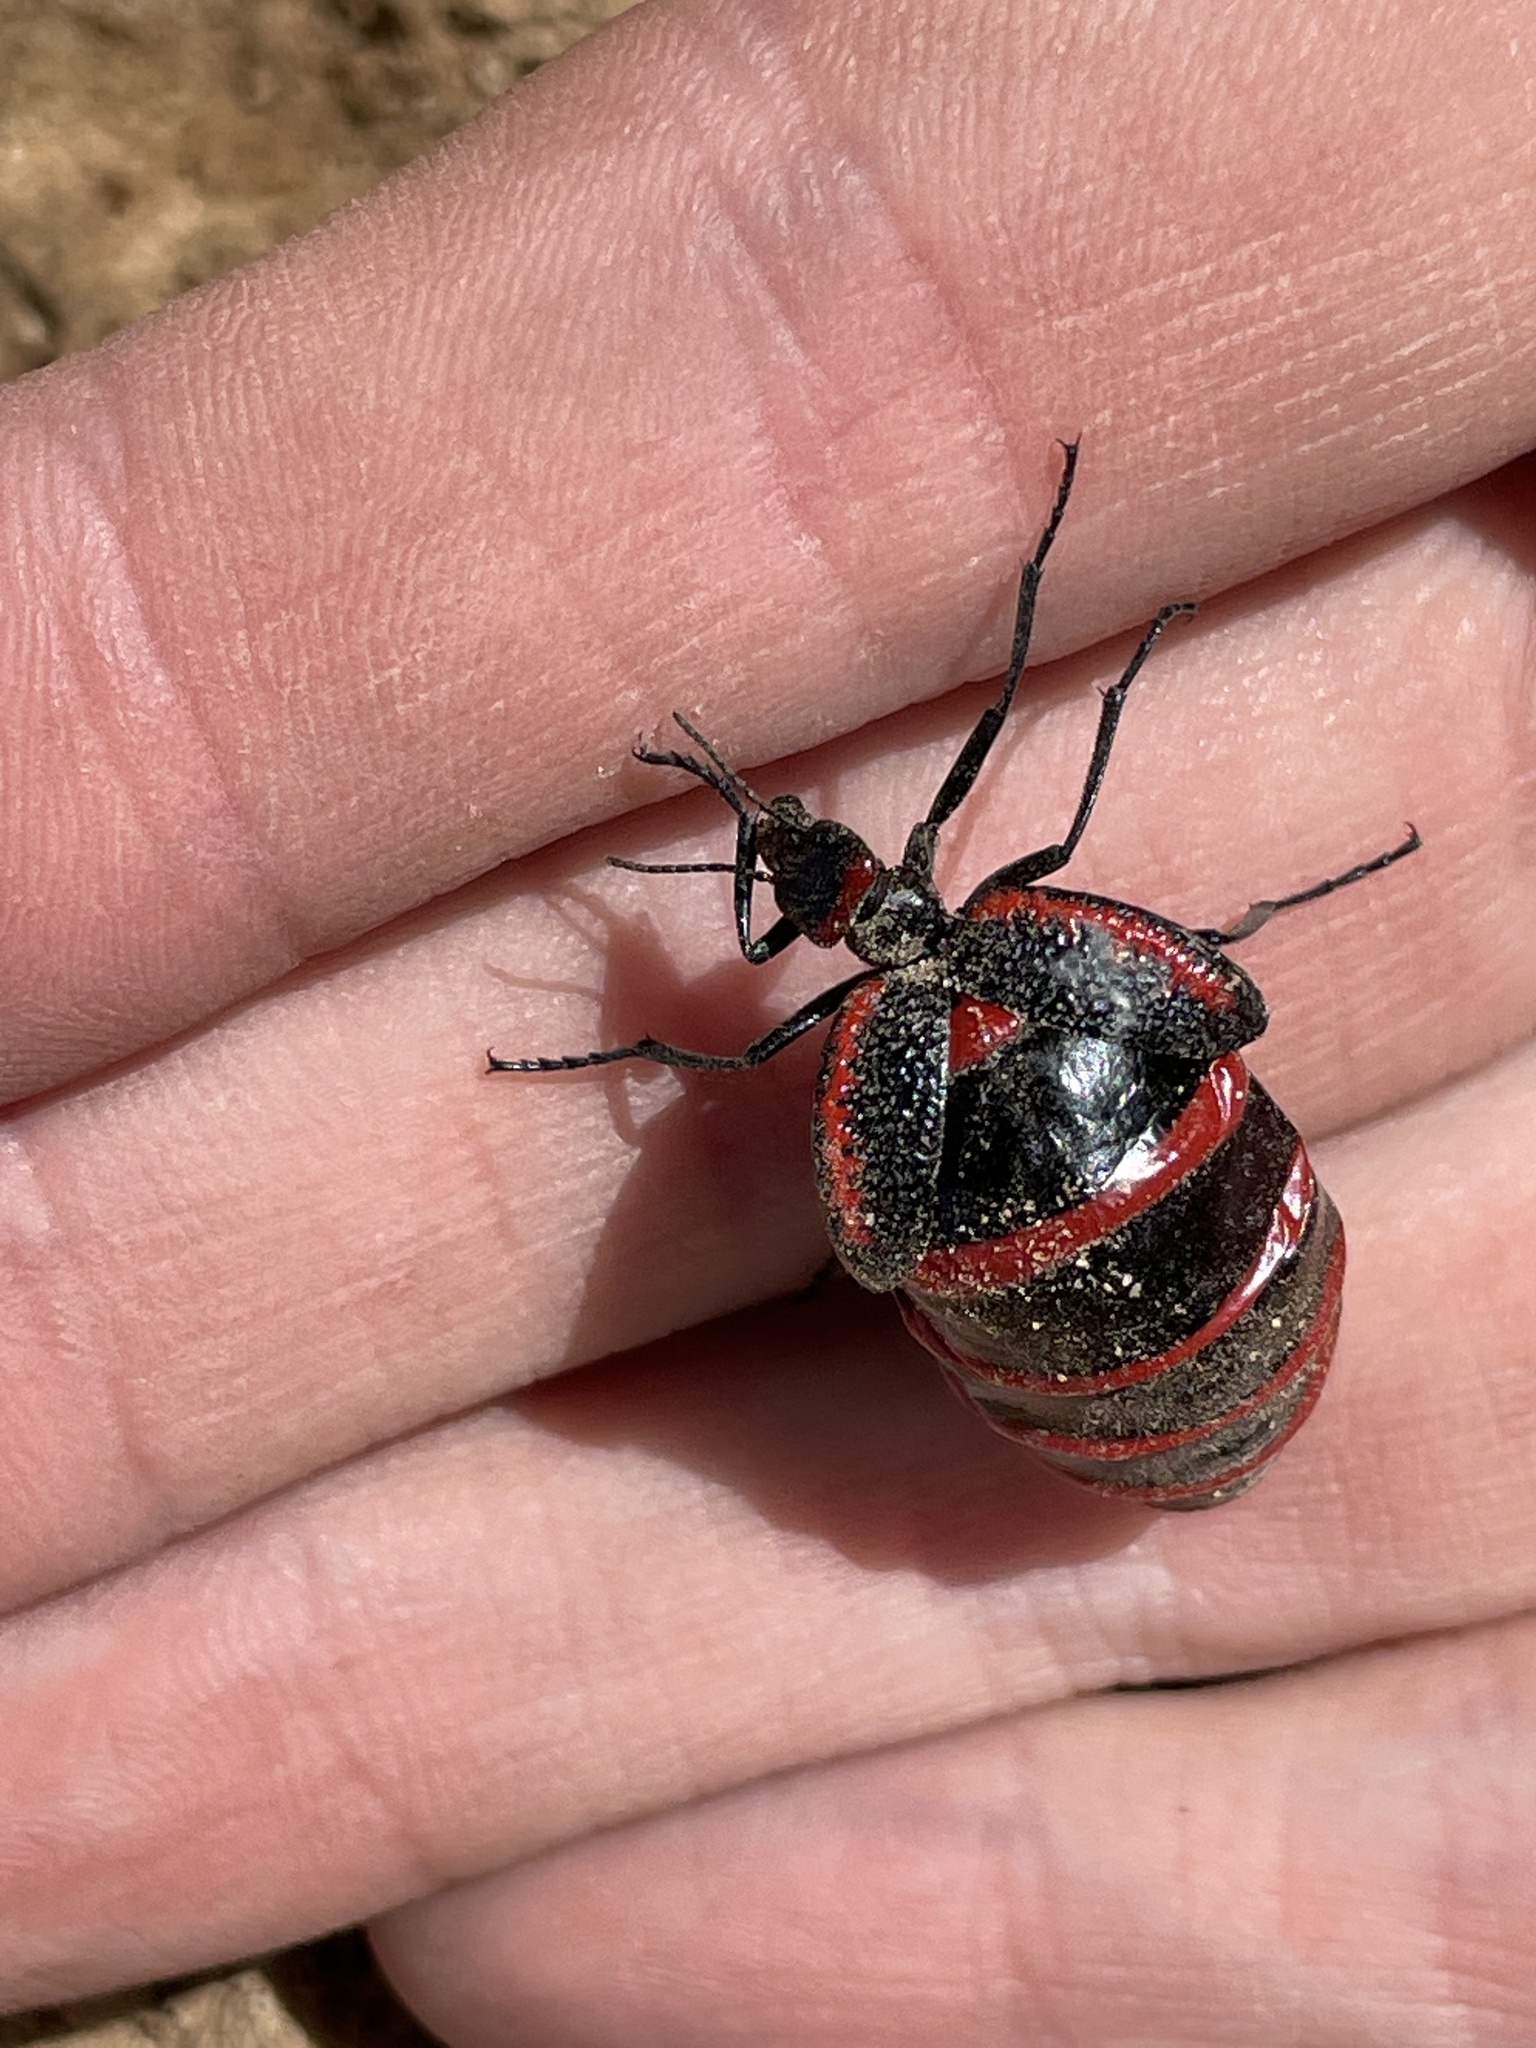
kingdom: Animalia
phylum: Arthropoda
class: Insecta
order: Coleoptera
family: Meloidae
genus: Megetra
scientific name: Megetra vittata
